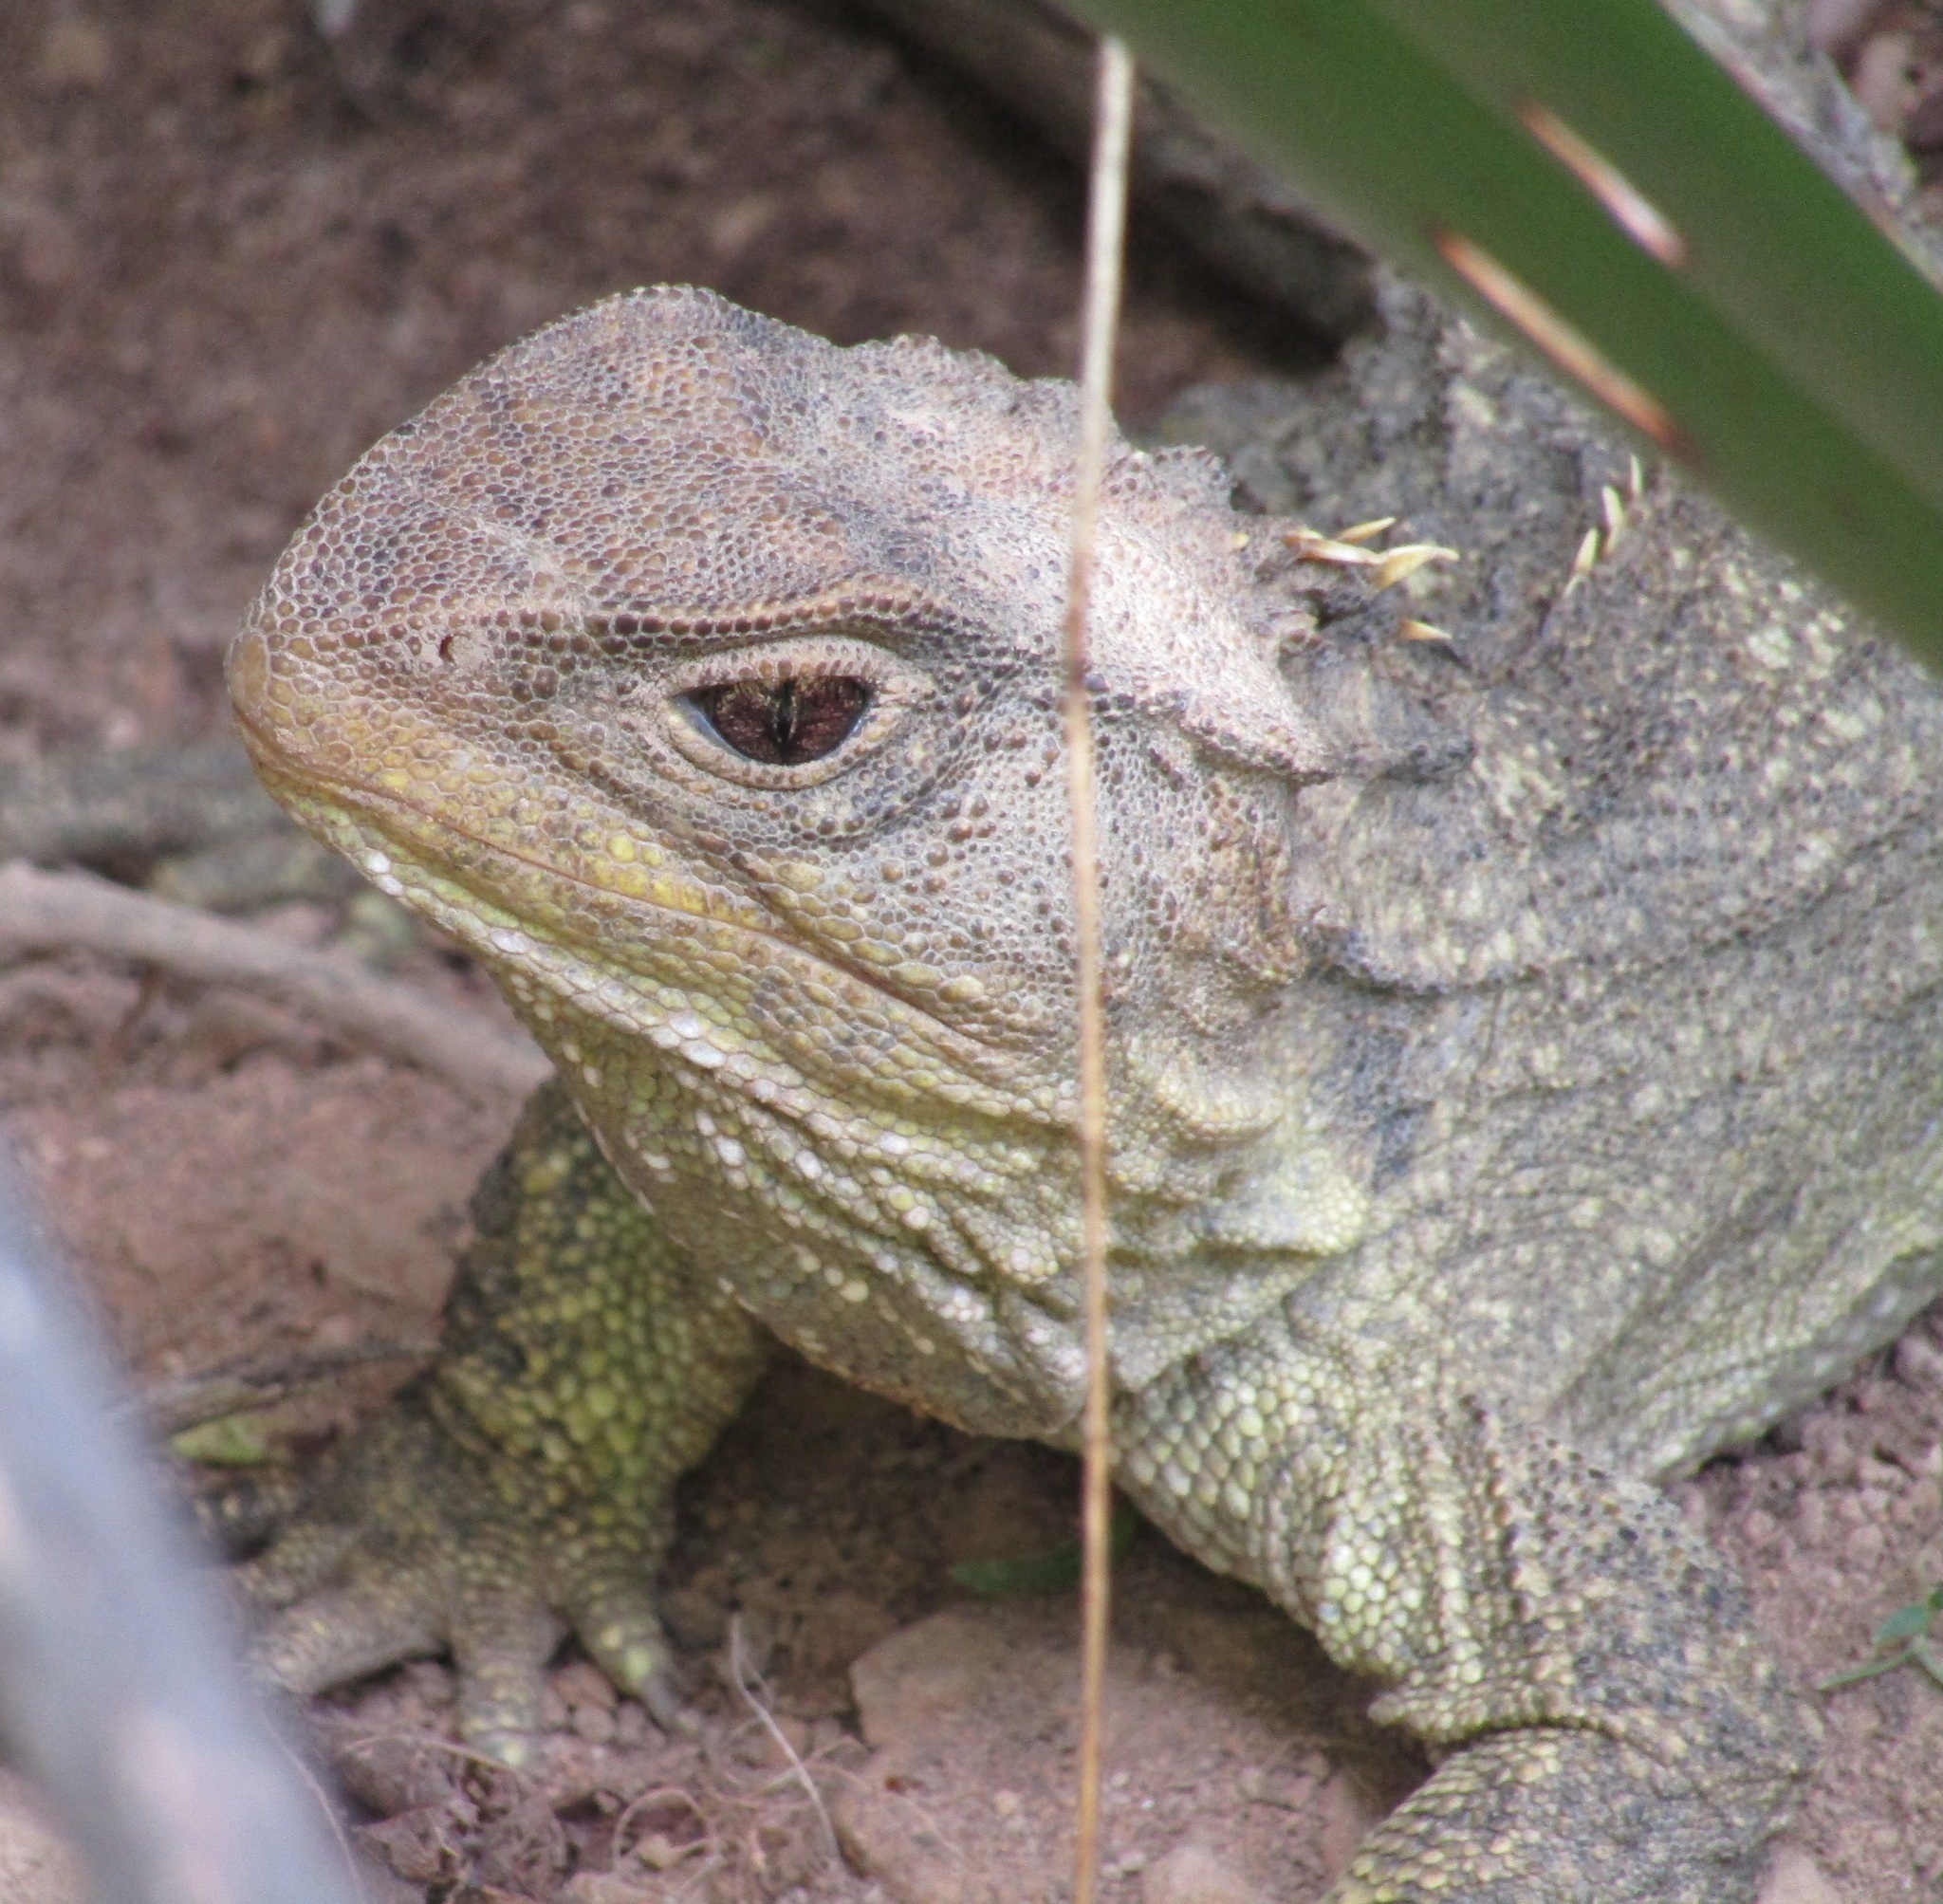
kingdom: Animalia
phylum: Chordata
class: Sphenodontia
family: Sphenodontidae
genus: Sphenodon
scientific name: Sphenodon punctatus
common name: Tuatara
